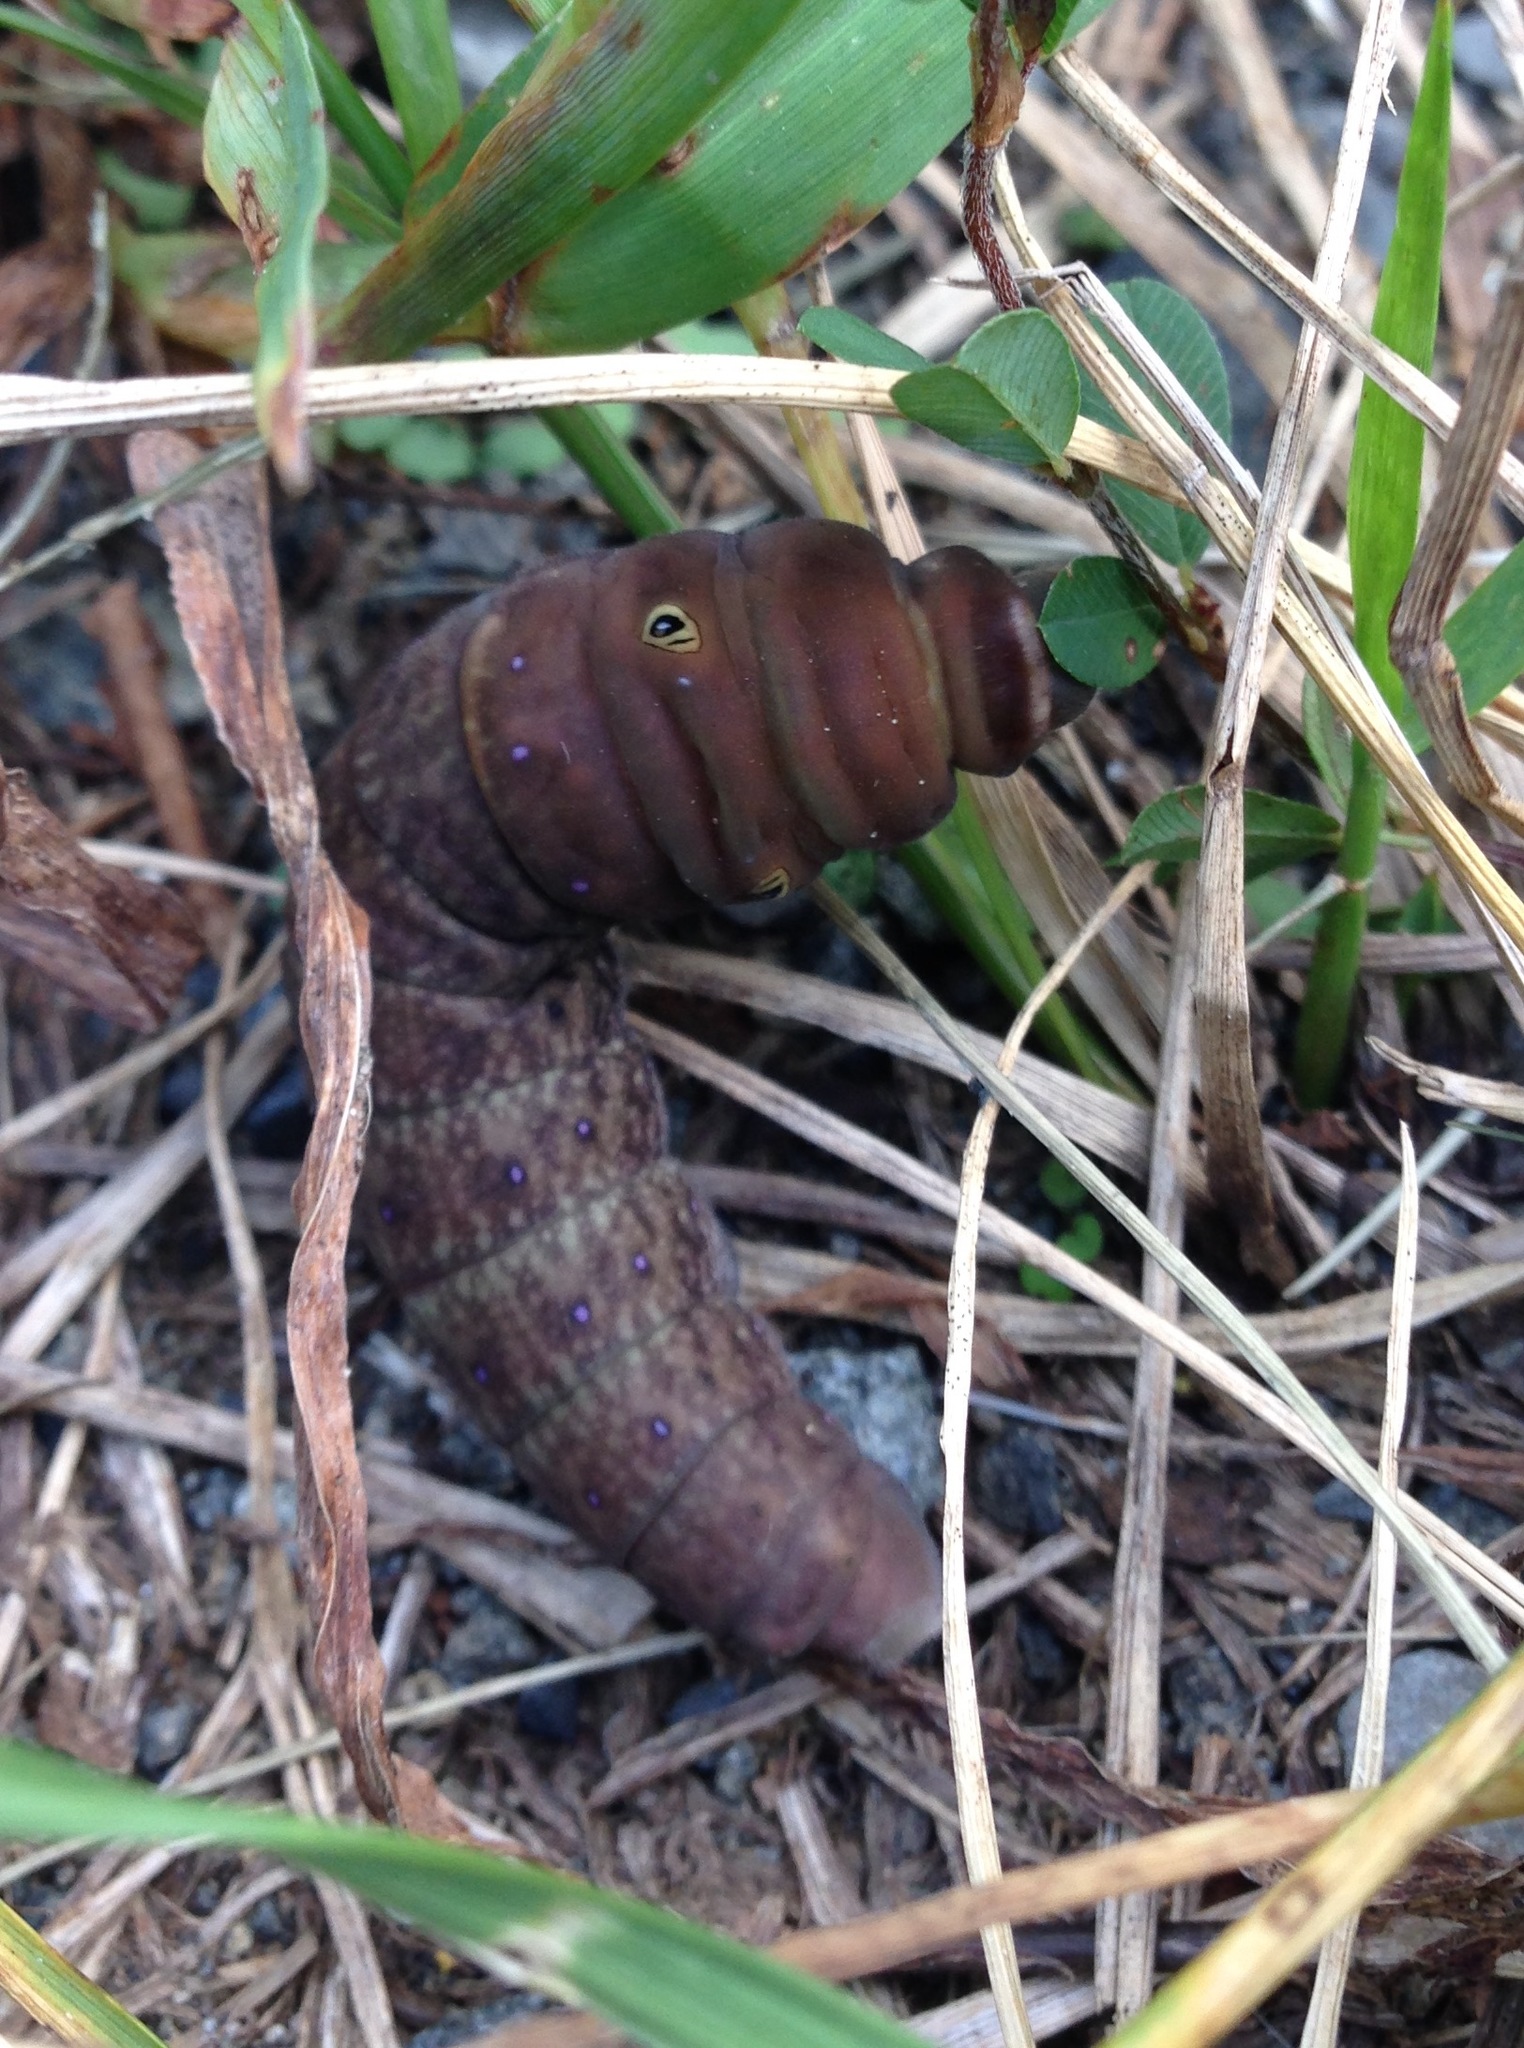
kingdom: Animalia
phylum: Arthropoda
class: Insecta
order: Lepidoptera
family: Papilionidae
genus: Papilio
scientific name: Papilio glaucus
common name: Tiger swallowtail
